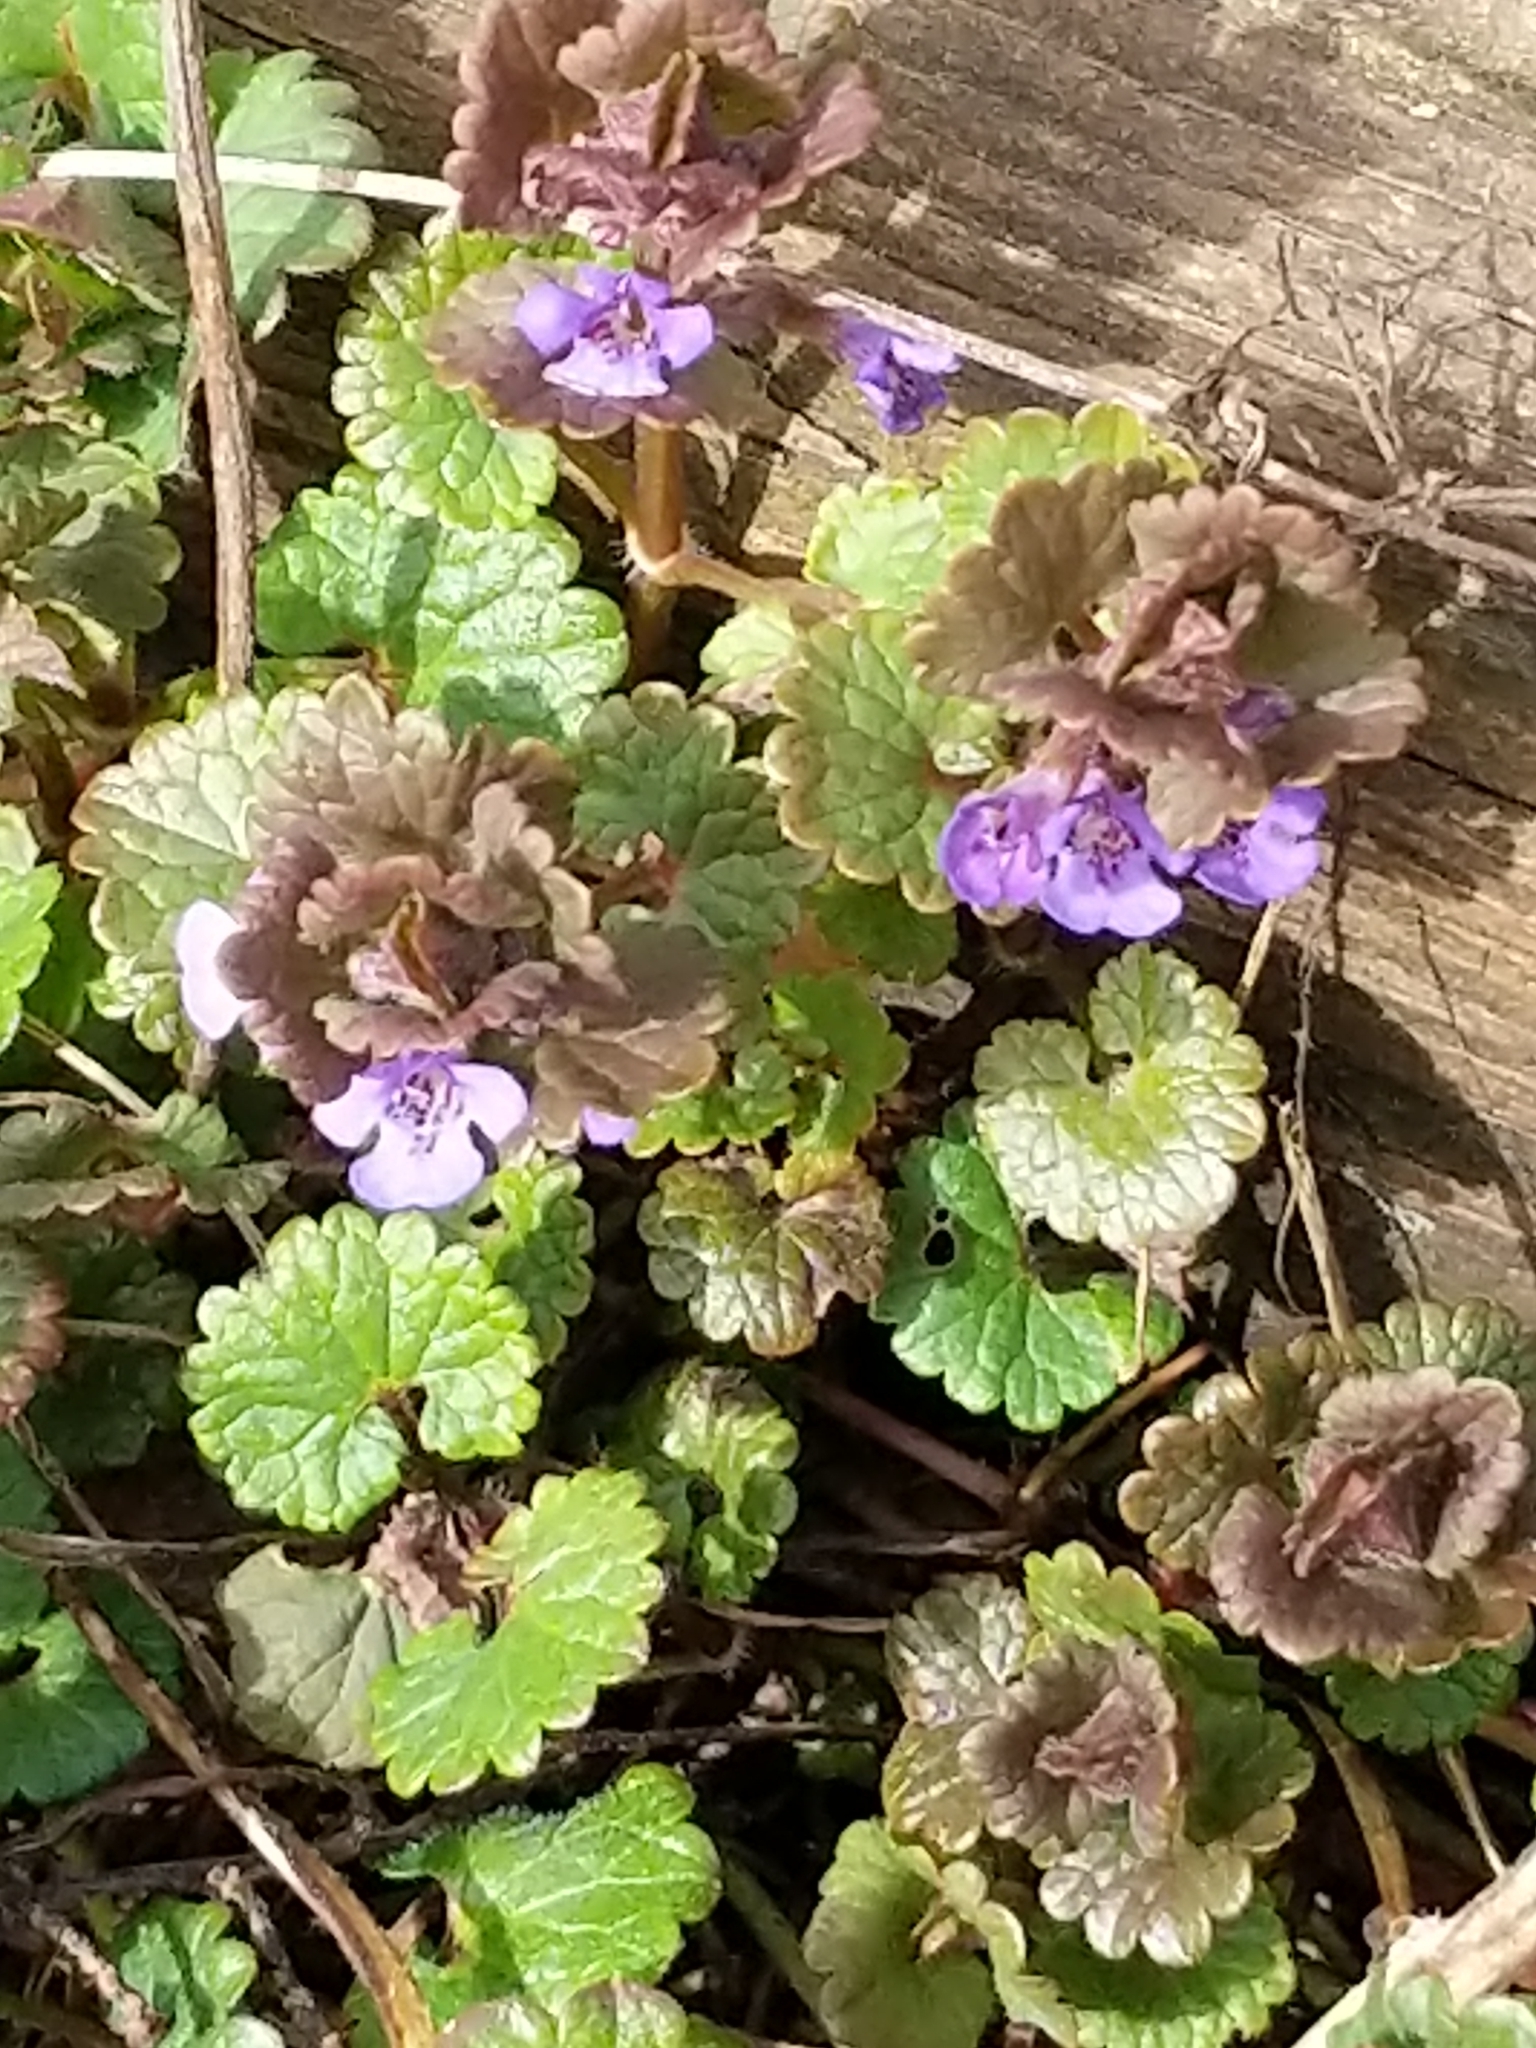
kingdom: Plantae
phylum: Tracheophyta
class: Magnoliopsida
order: Lamiales
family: Lamiaceae
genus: Glechoma
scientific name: Glechoma hederacea
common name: Ground ivy
